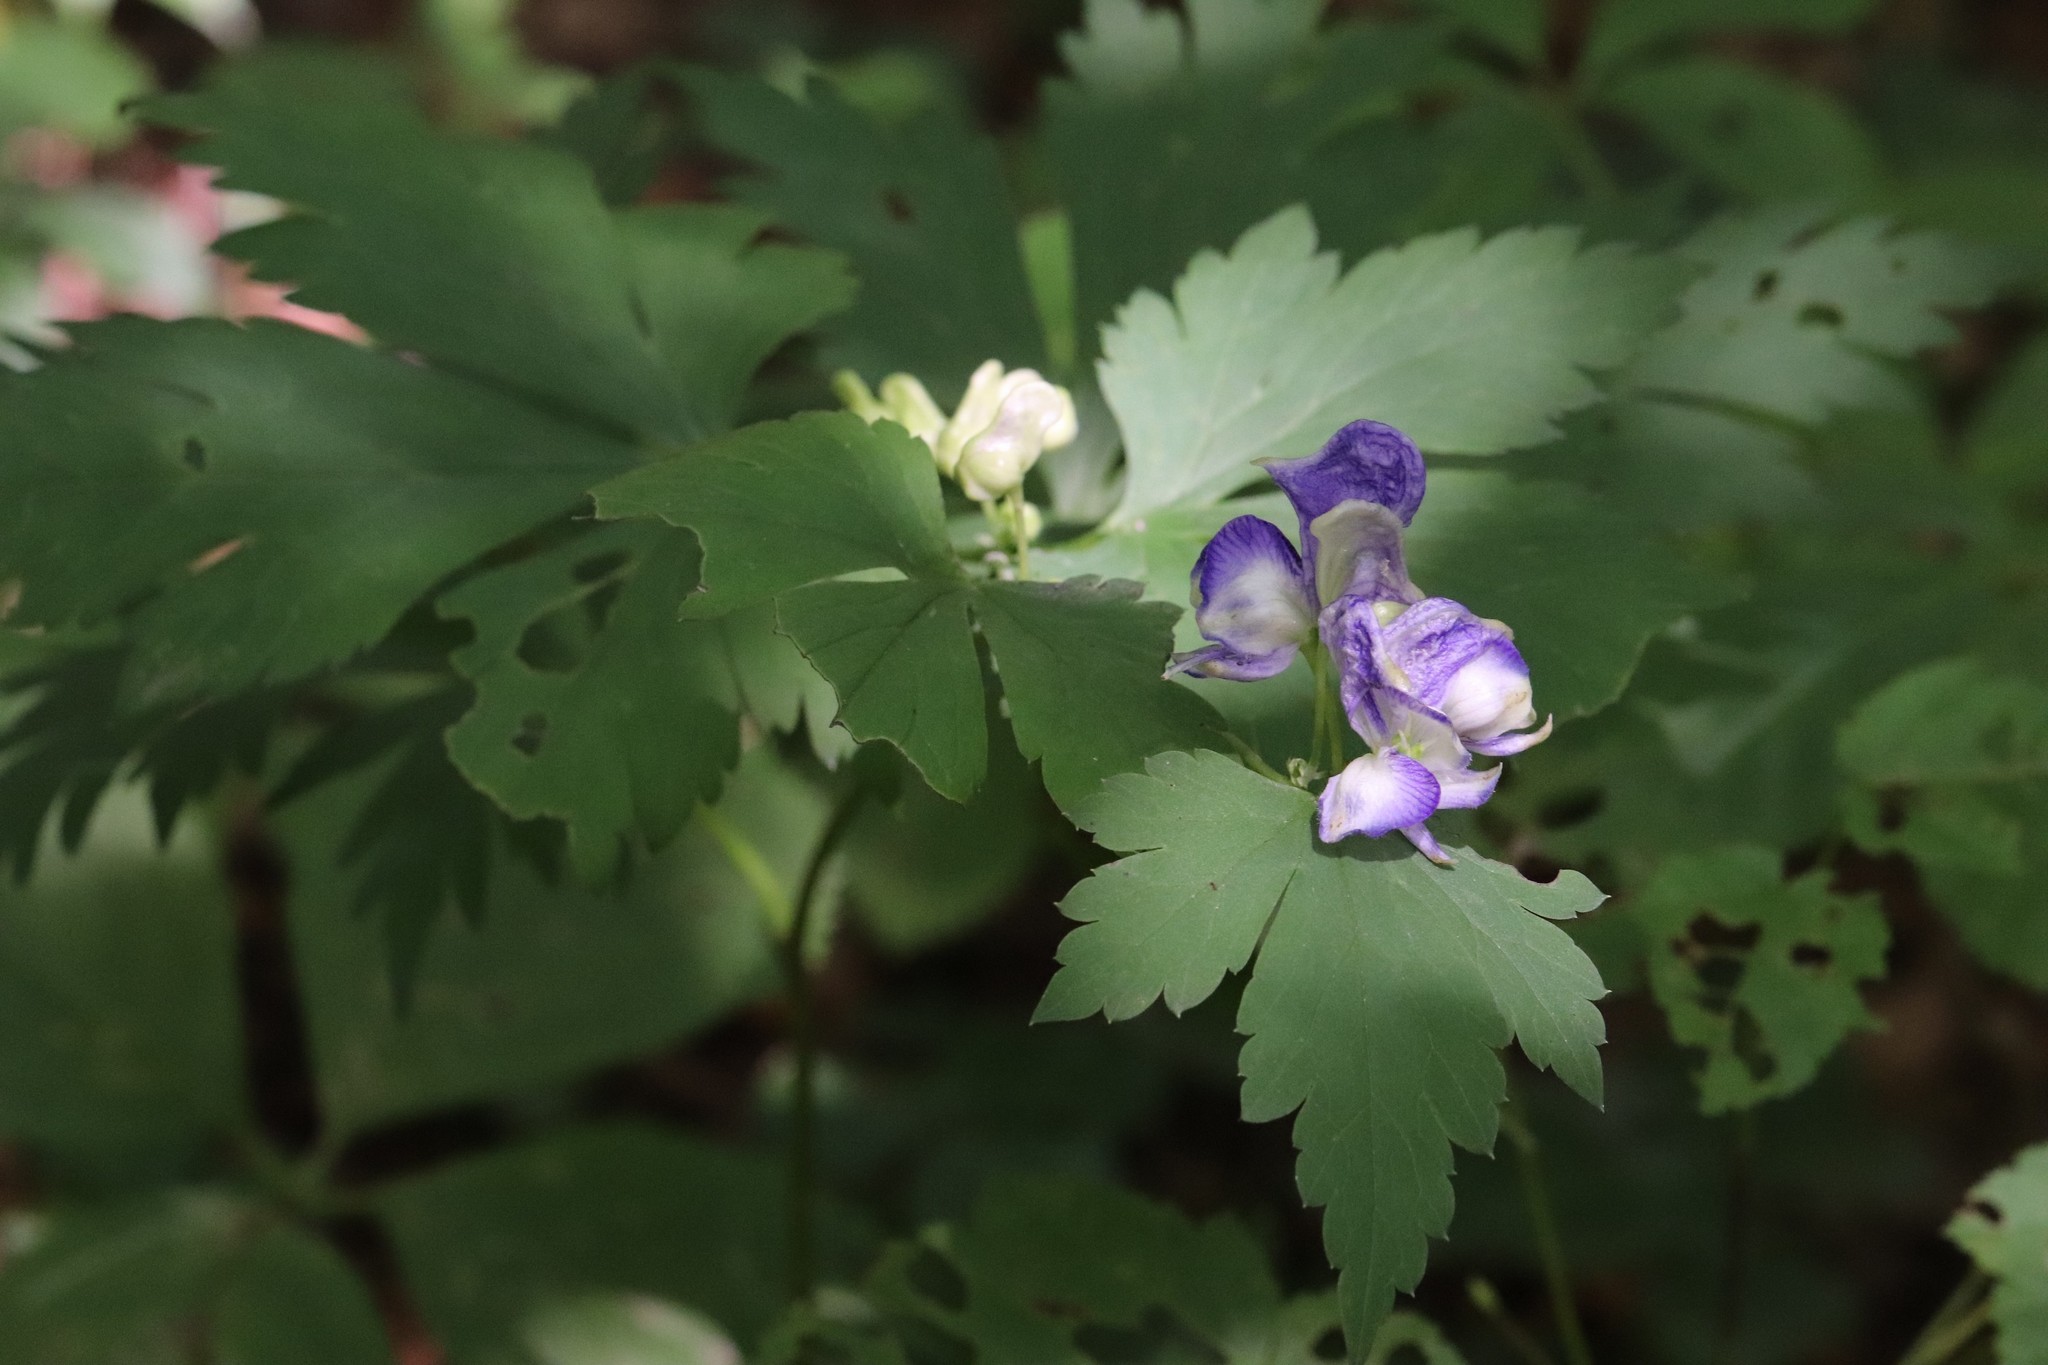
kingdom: Plantae
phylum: Tracheophyta
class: Magnoliopsida
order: Ranunculales
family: Ranunculaceae
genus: Aconitum
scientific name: Aconitum sczukinii
